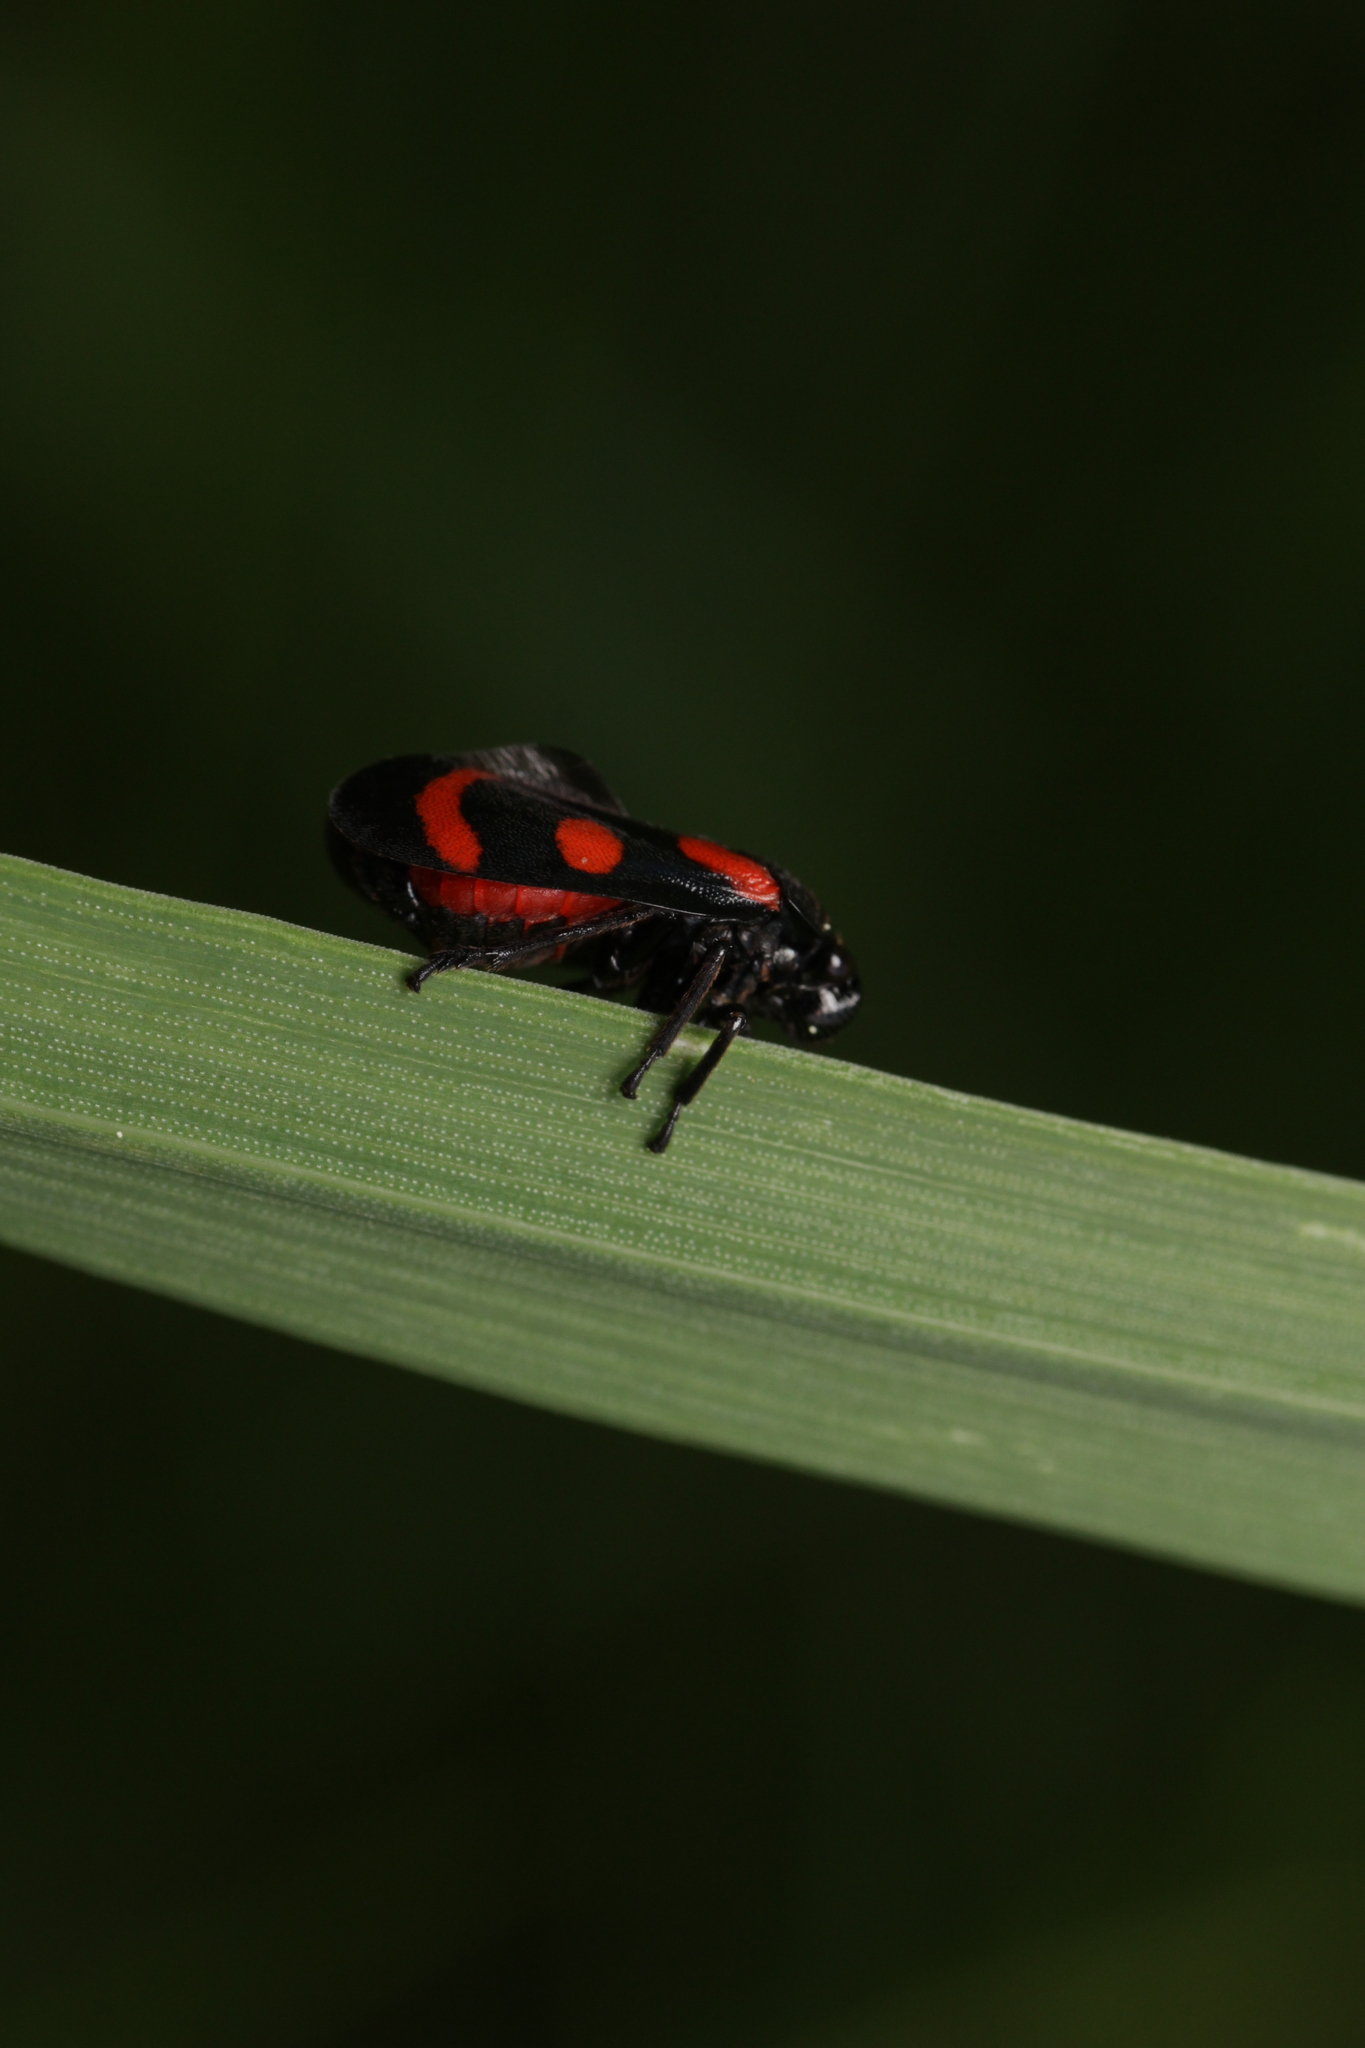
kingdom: Animalia
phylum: Arthropoda
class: Insecta
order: Hemiptera
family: Cercopidae
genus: Cercopis
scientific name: Cercopis arcuata
